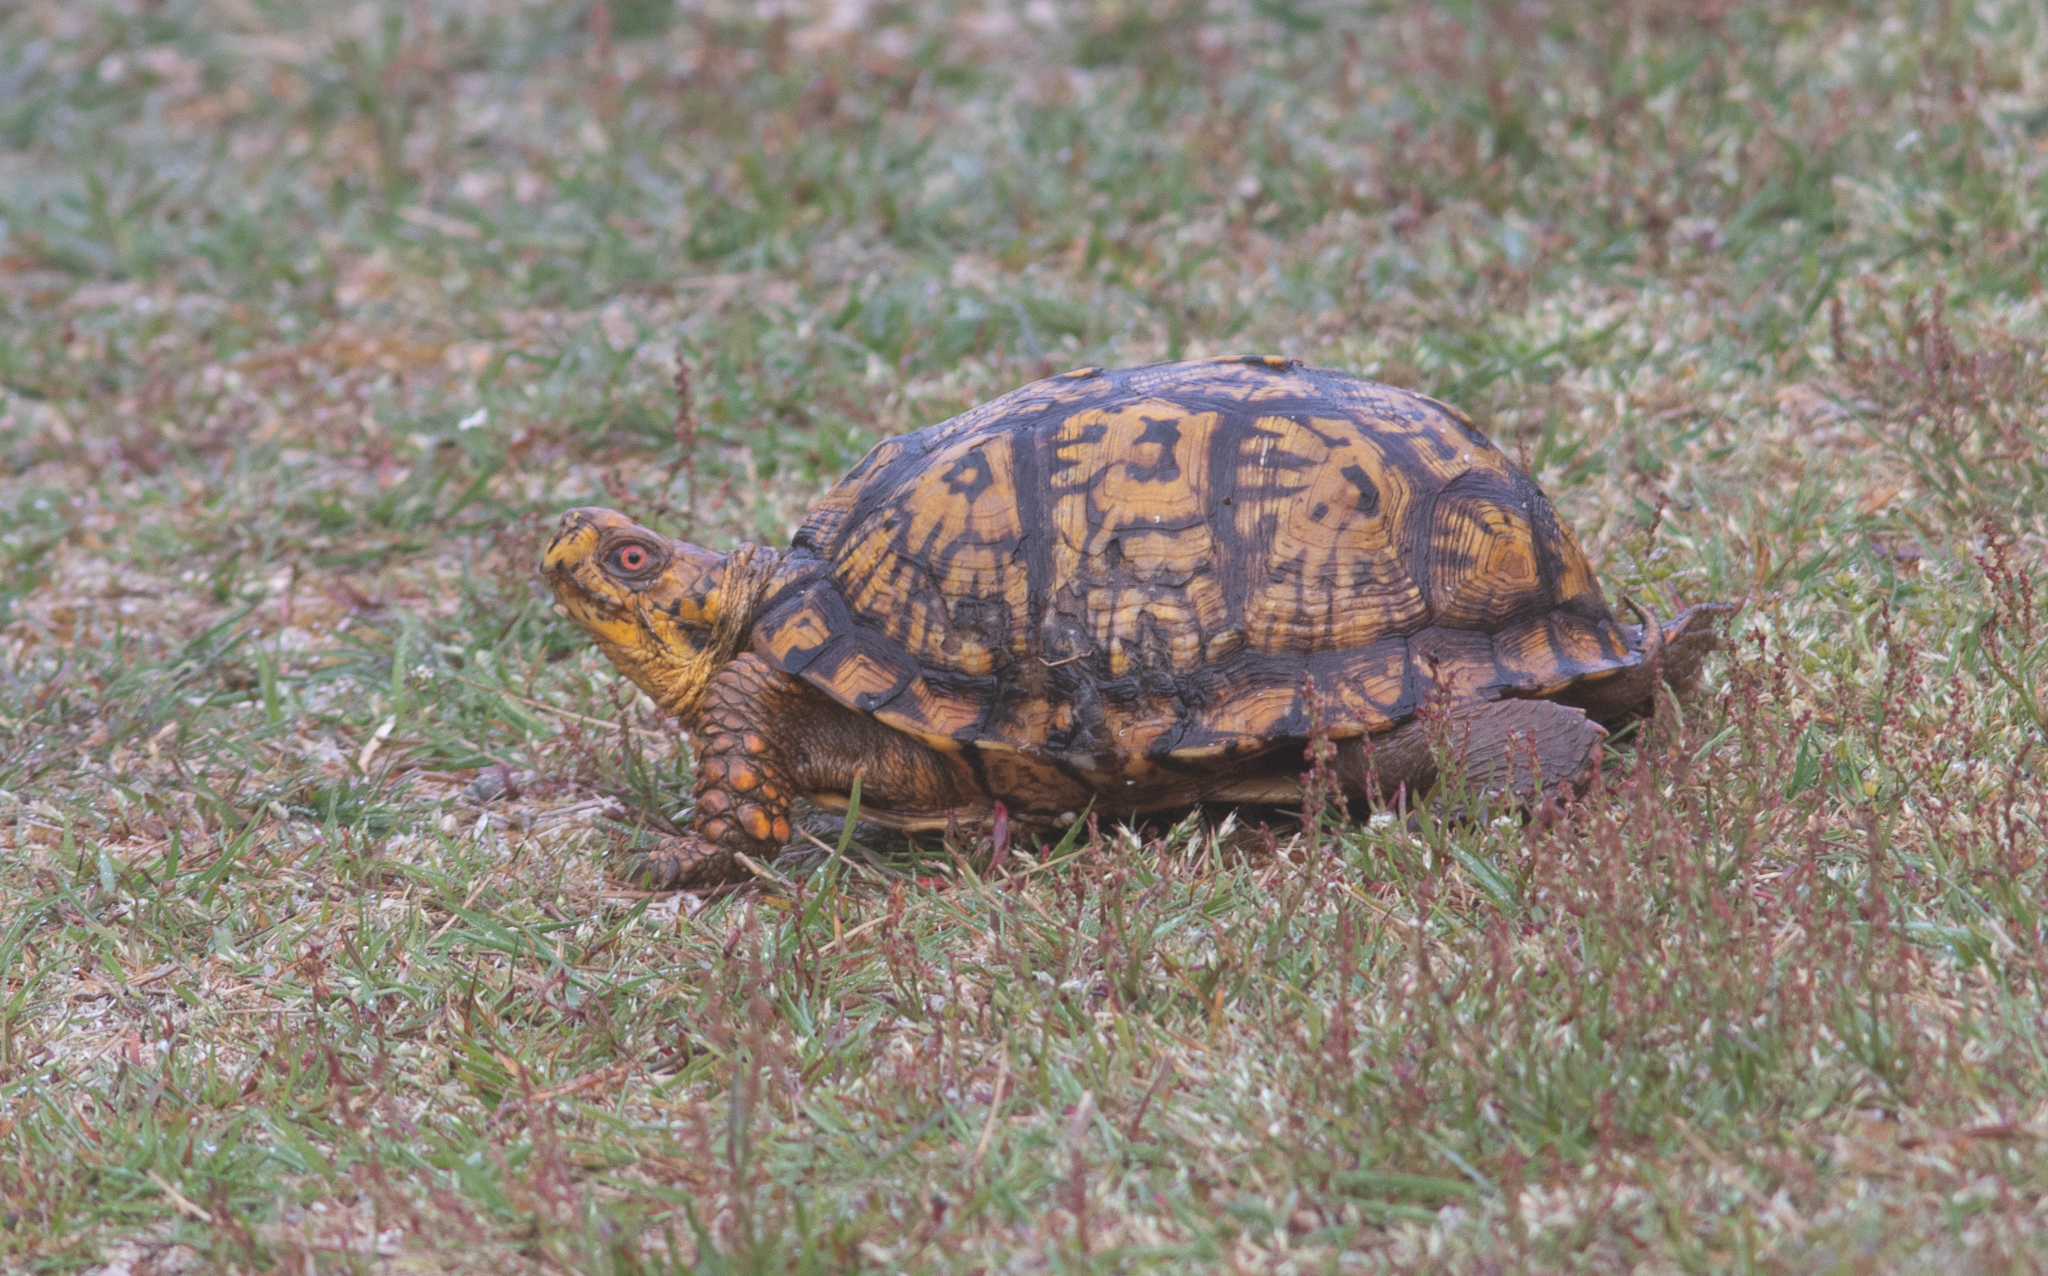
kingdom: Animalia
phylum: Chordata
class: Testudines
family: Emydidae
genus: Terrapene
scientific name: Terrapene carolina
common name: Common box turtle
